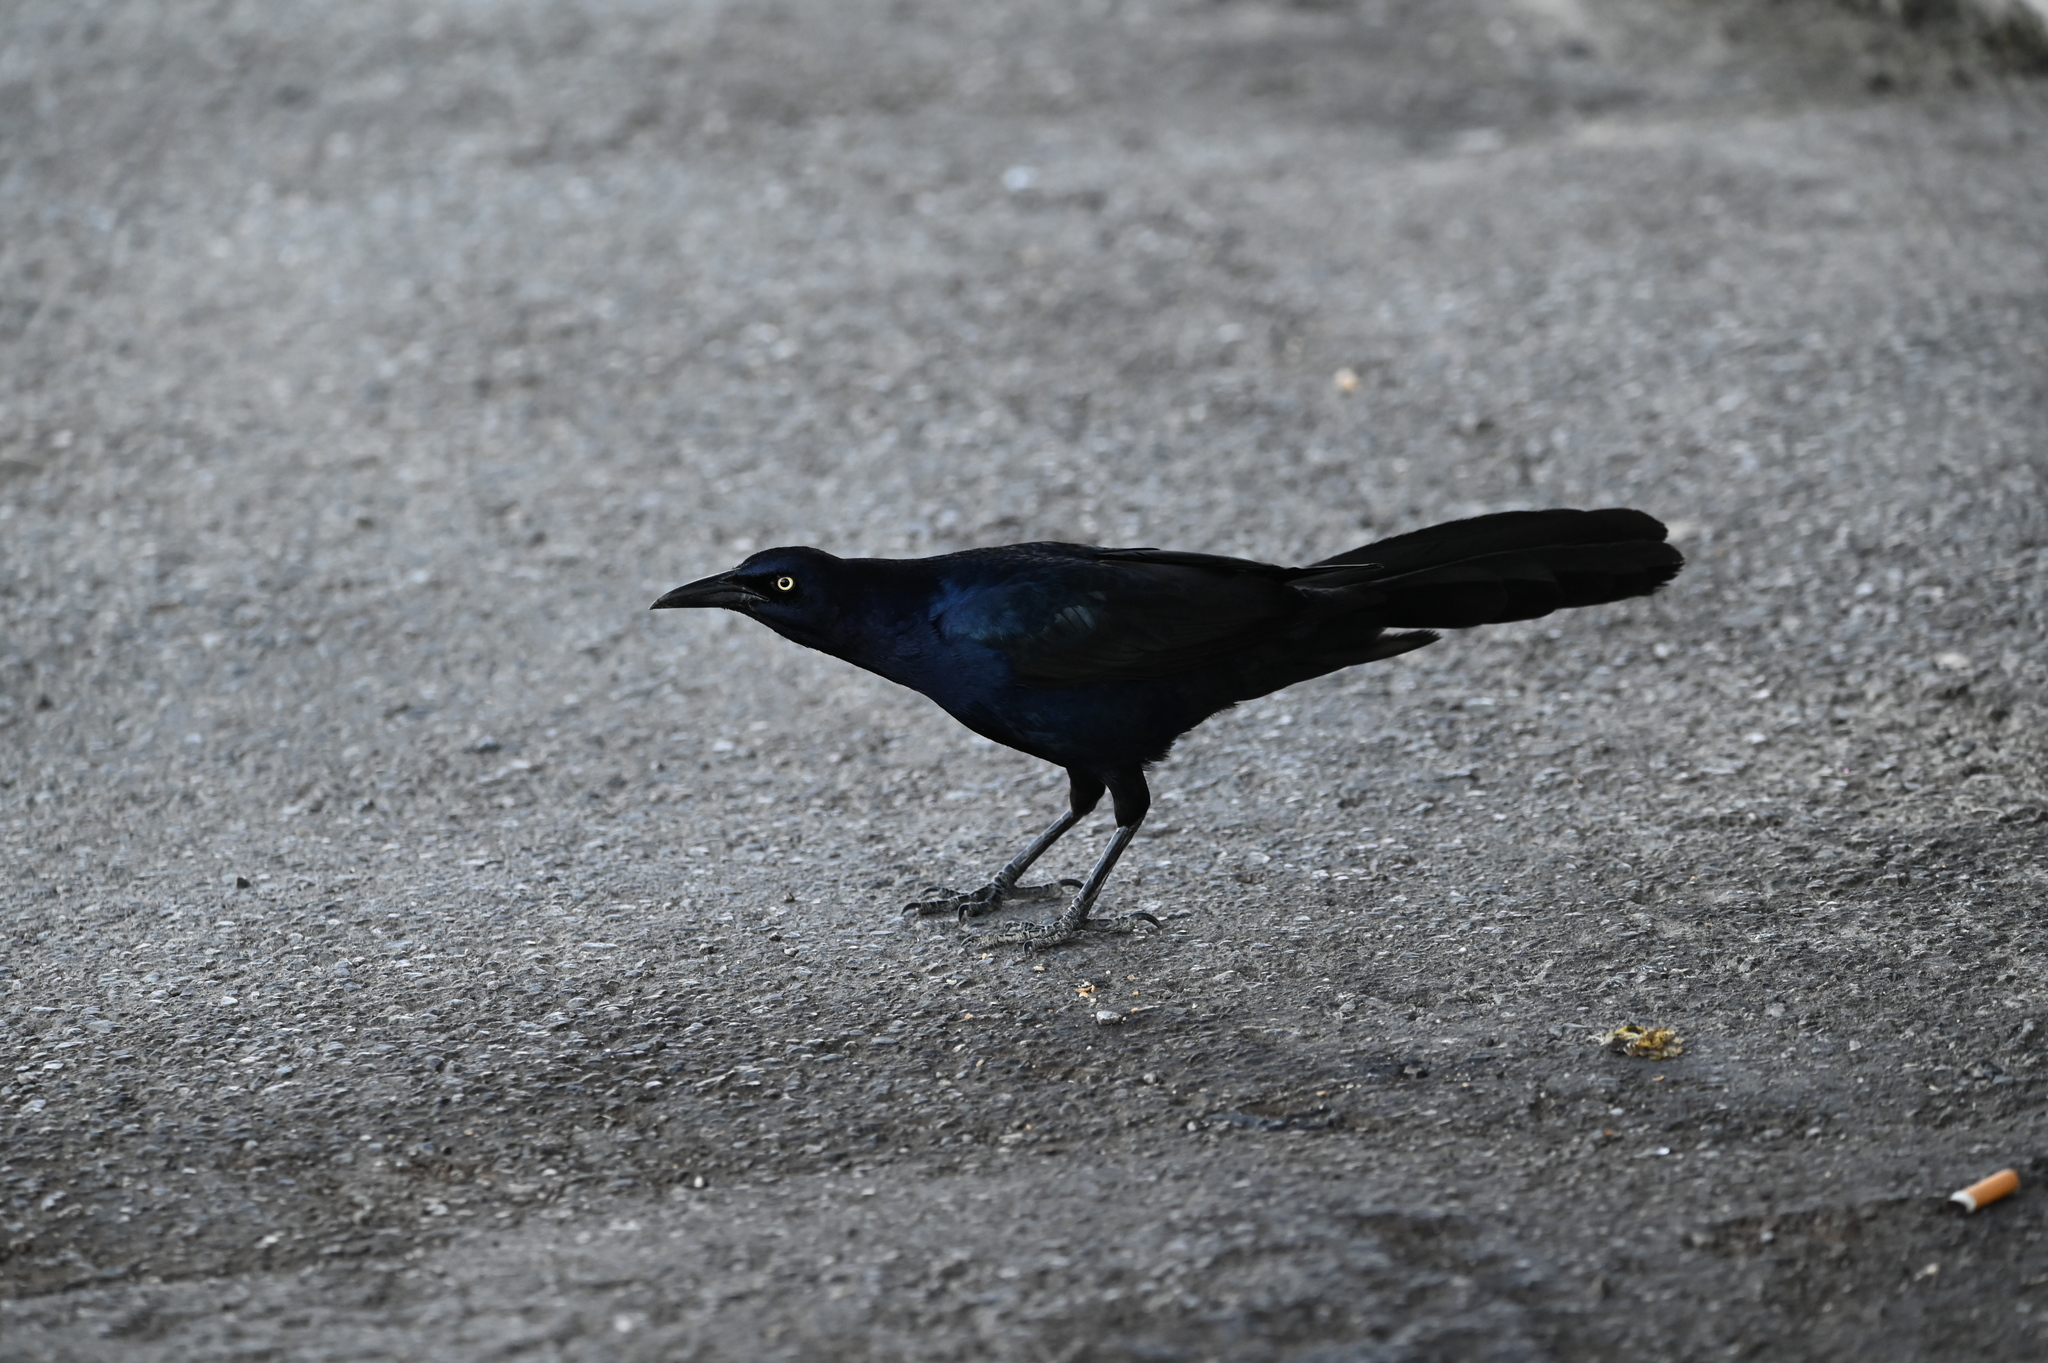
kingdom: Animalia
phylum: Chordata
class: Aves
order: Passeriformes
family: Icteridae
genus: Quiscalus
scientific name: Quiscalus mexicanus
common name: Great-tailed grackle
